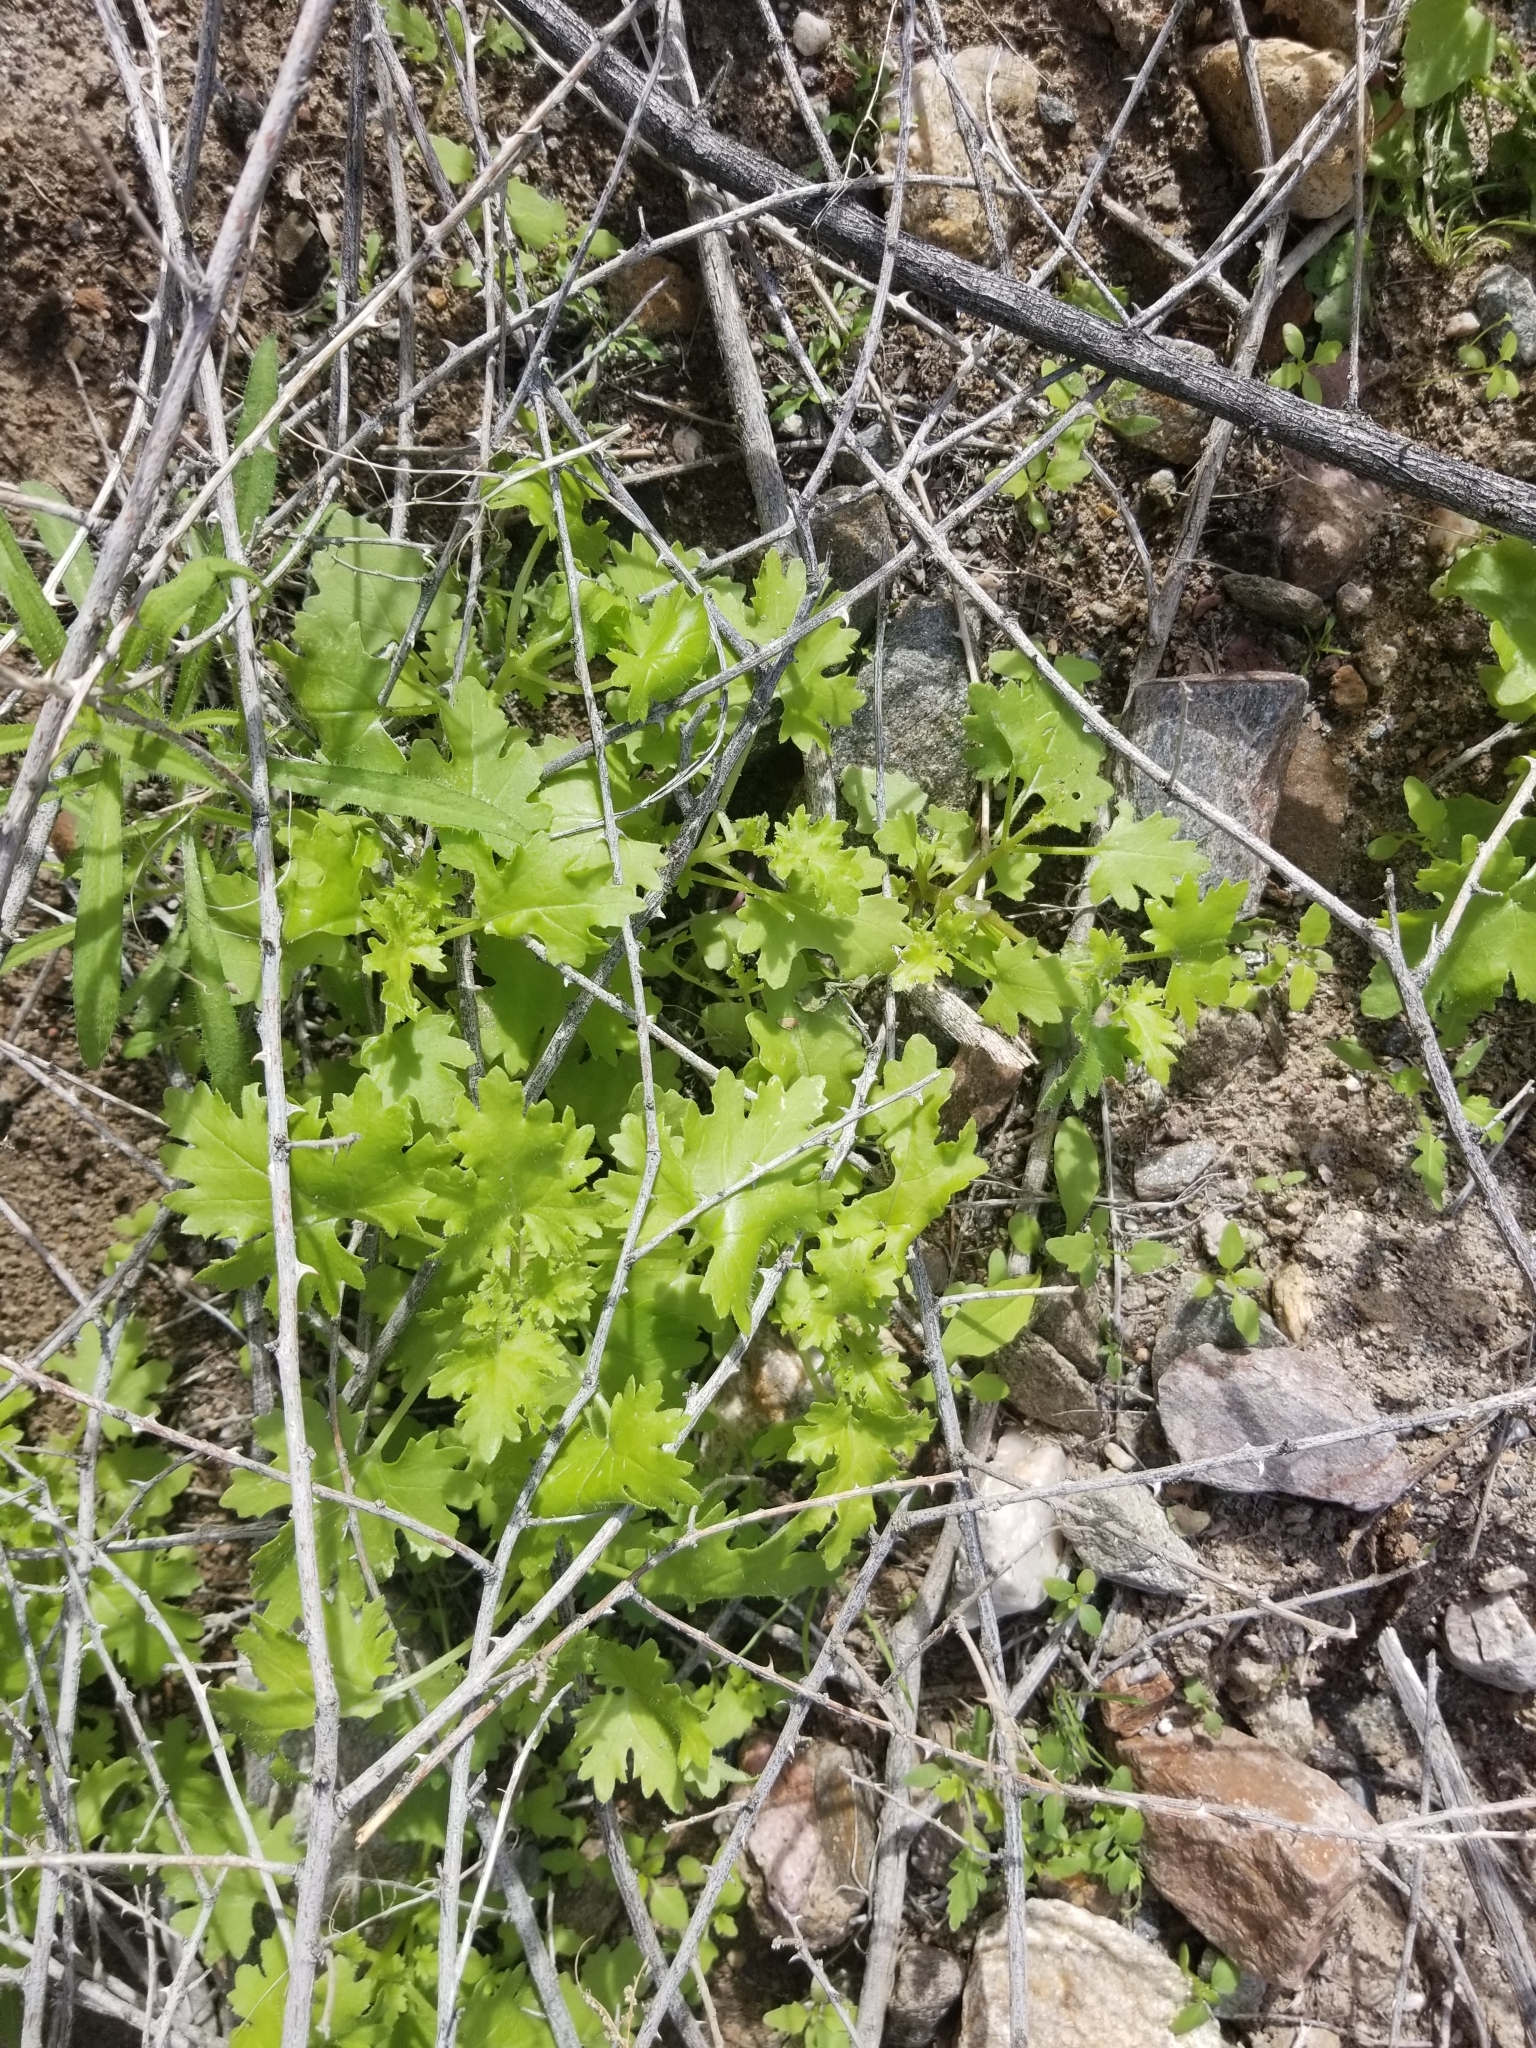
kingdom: Plantae
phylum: Tracheophyta
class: Magnoliopsida
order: Asterales
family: Asteraceae
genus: Laphamia
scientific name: Laphamia emoryi
